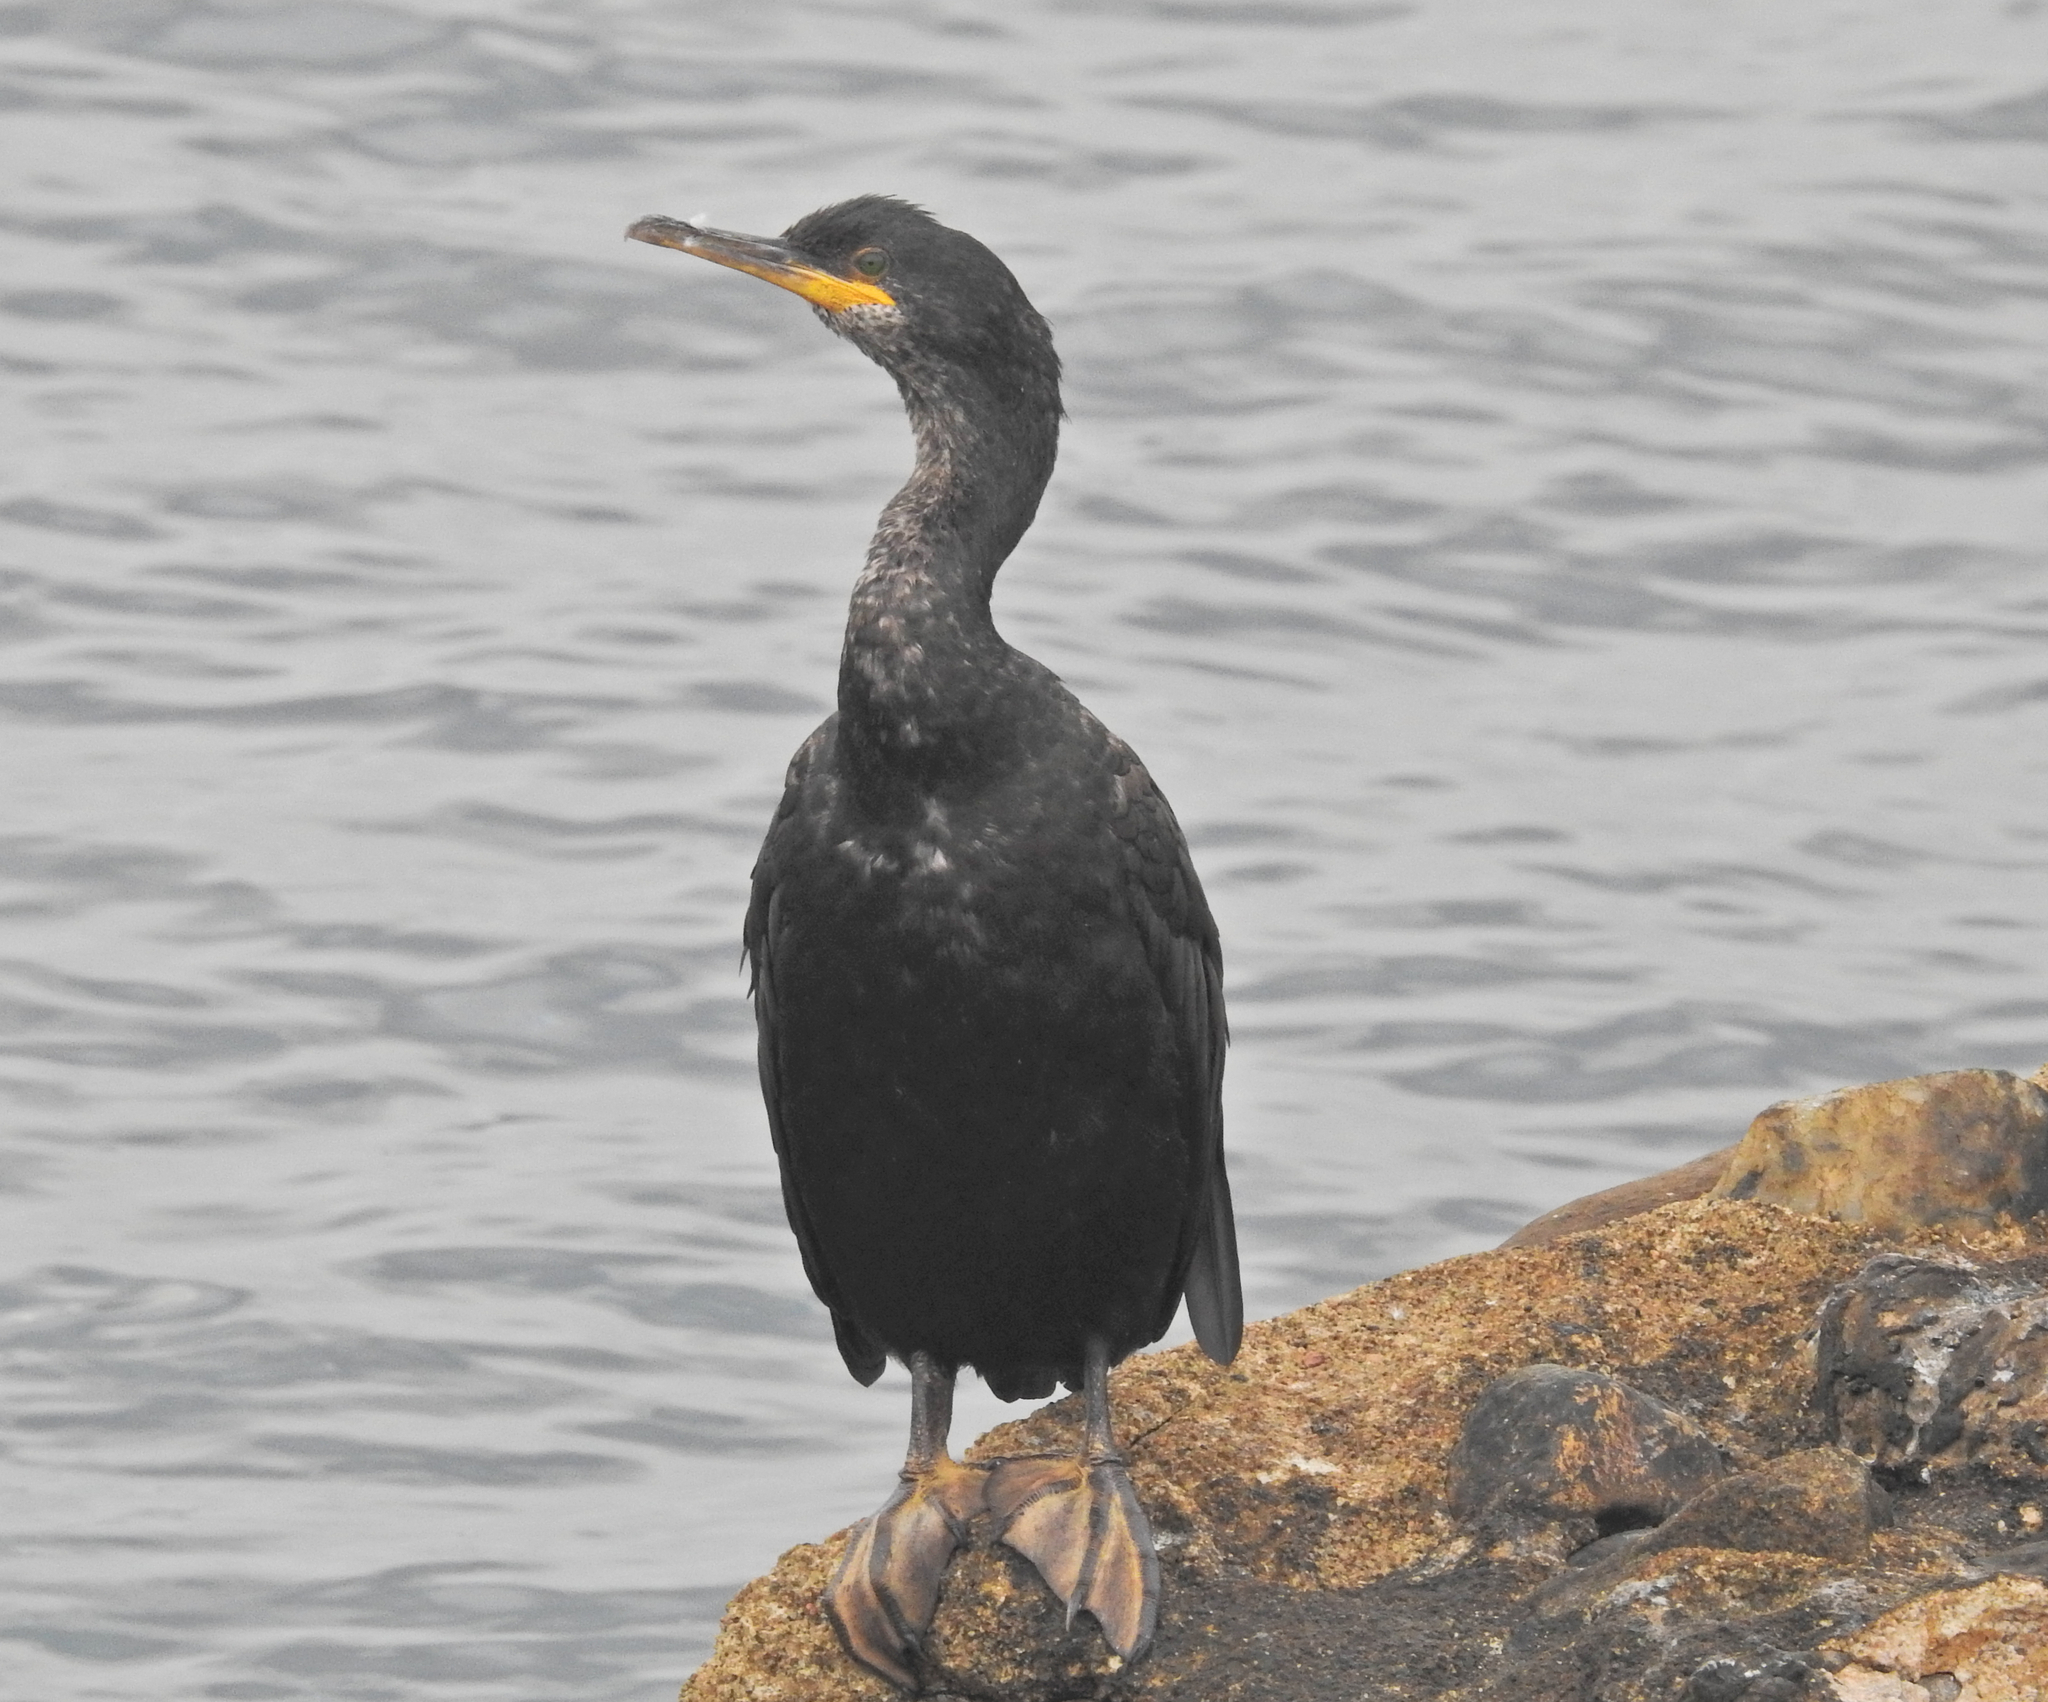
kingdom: Animalia
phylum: Chordata
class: Aves
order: Suliformes
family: Phalacrocoracidae
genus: Phalacrocorax
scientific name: Phalacrocorax aristotelis
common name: European shag
